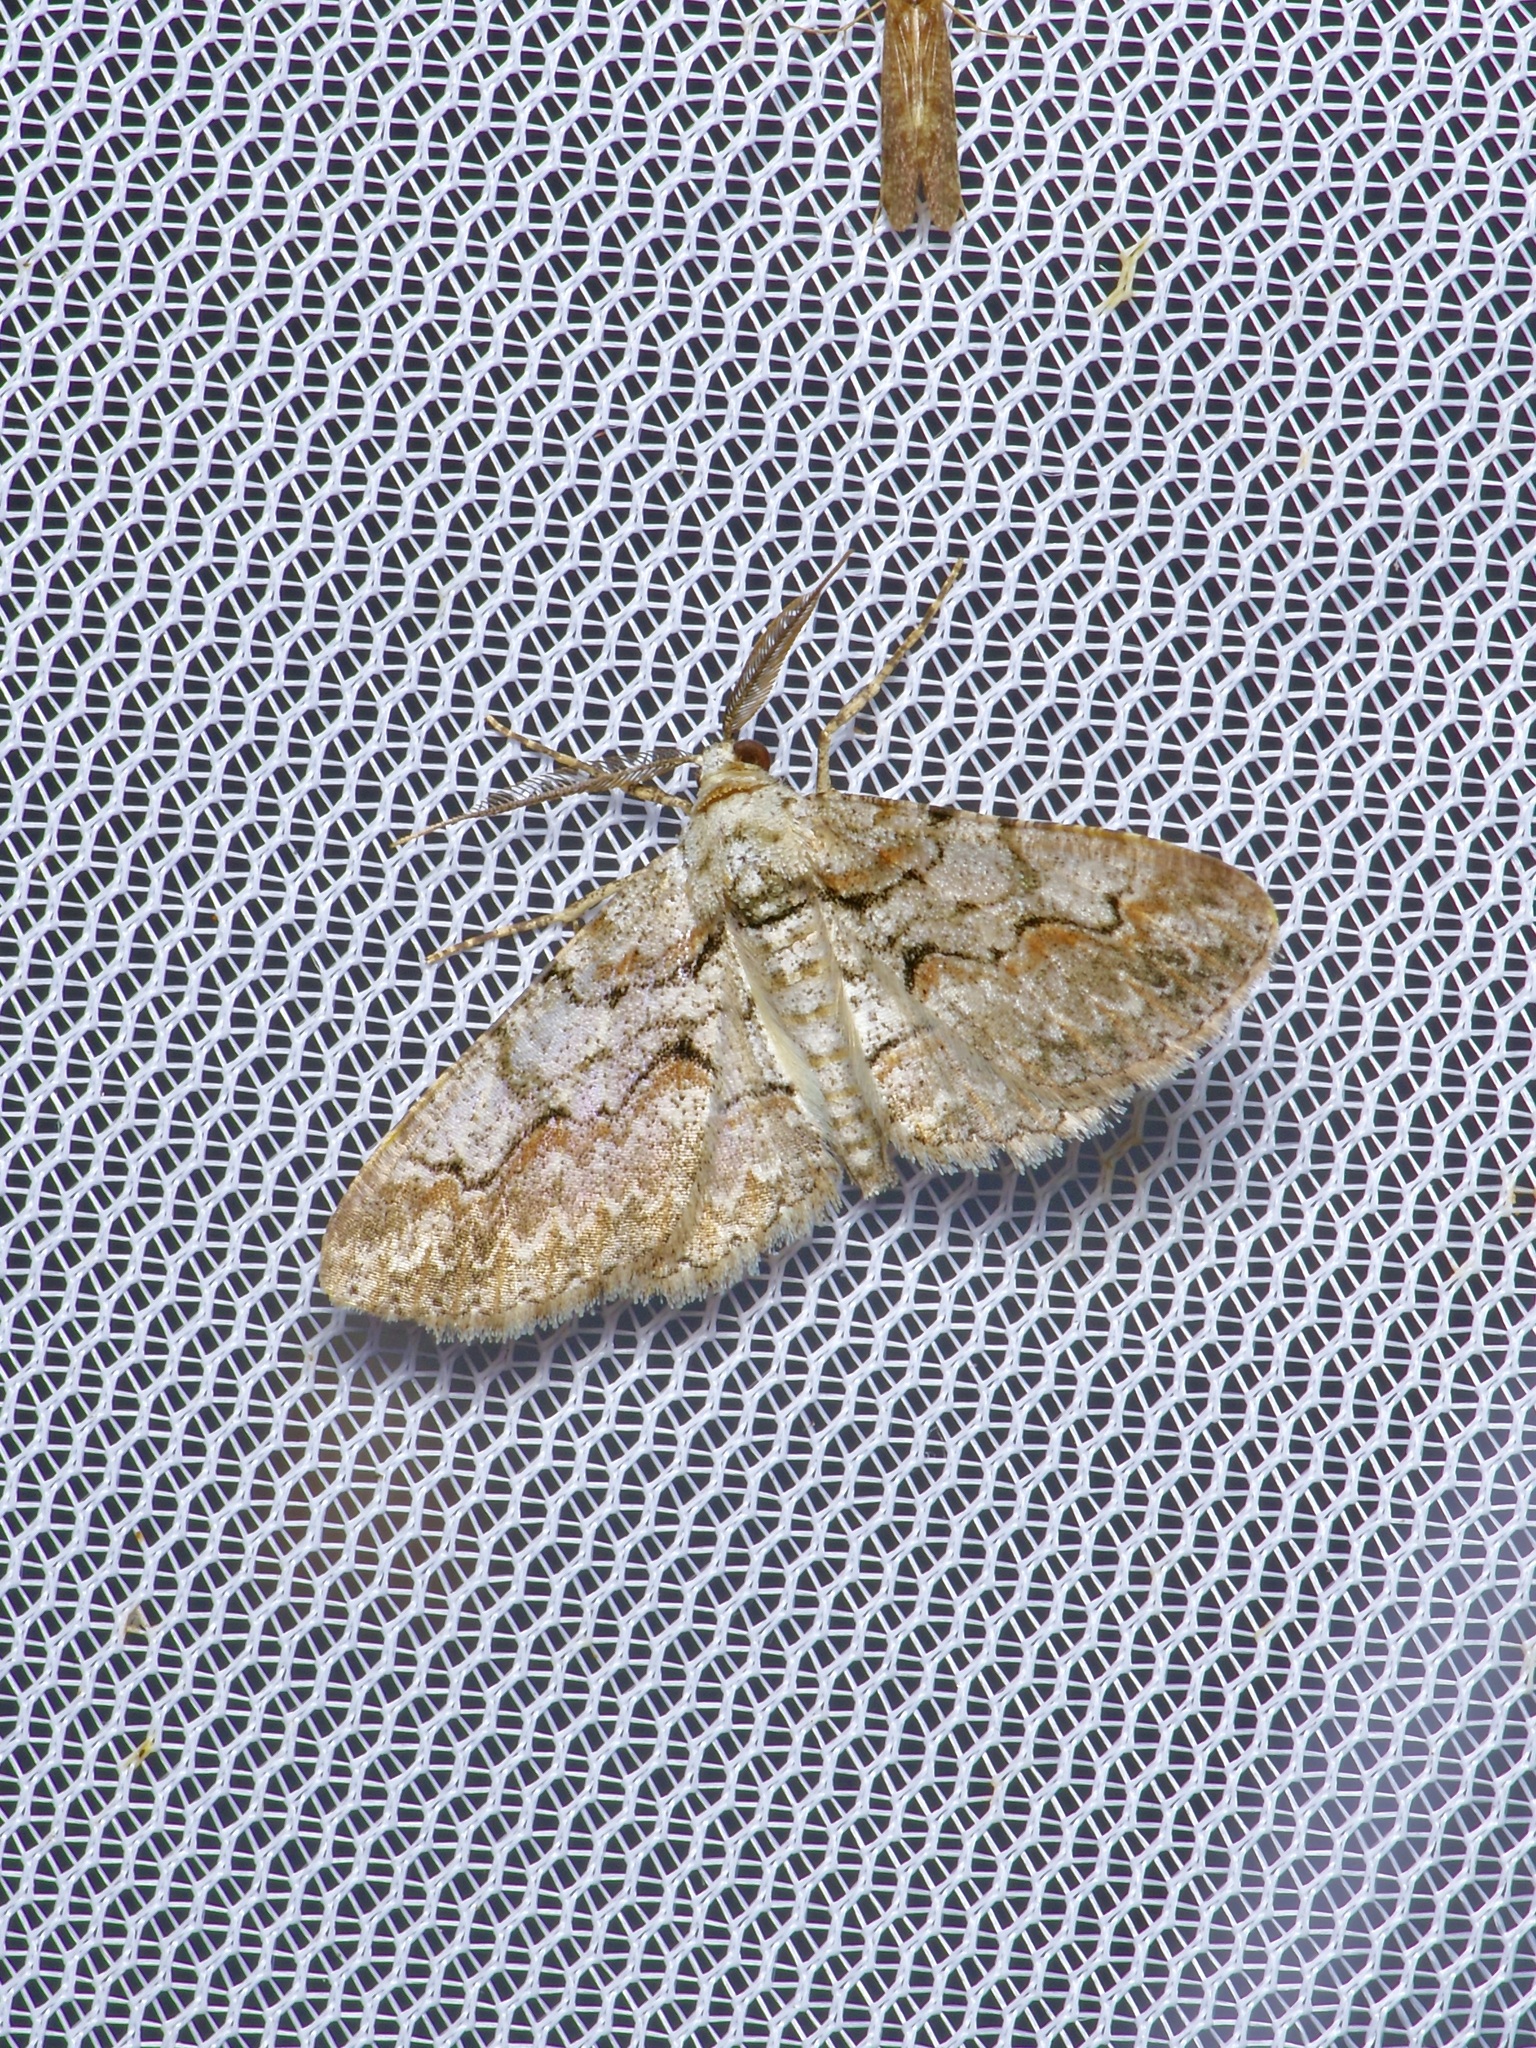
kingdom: Animalia
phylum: Arthropoda
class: Insecta
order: Lepidoptera
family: Geometridae
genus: Iridopsis
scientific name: Iridopsis defectaria
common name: Brown-shaded gray
